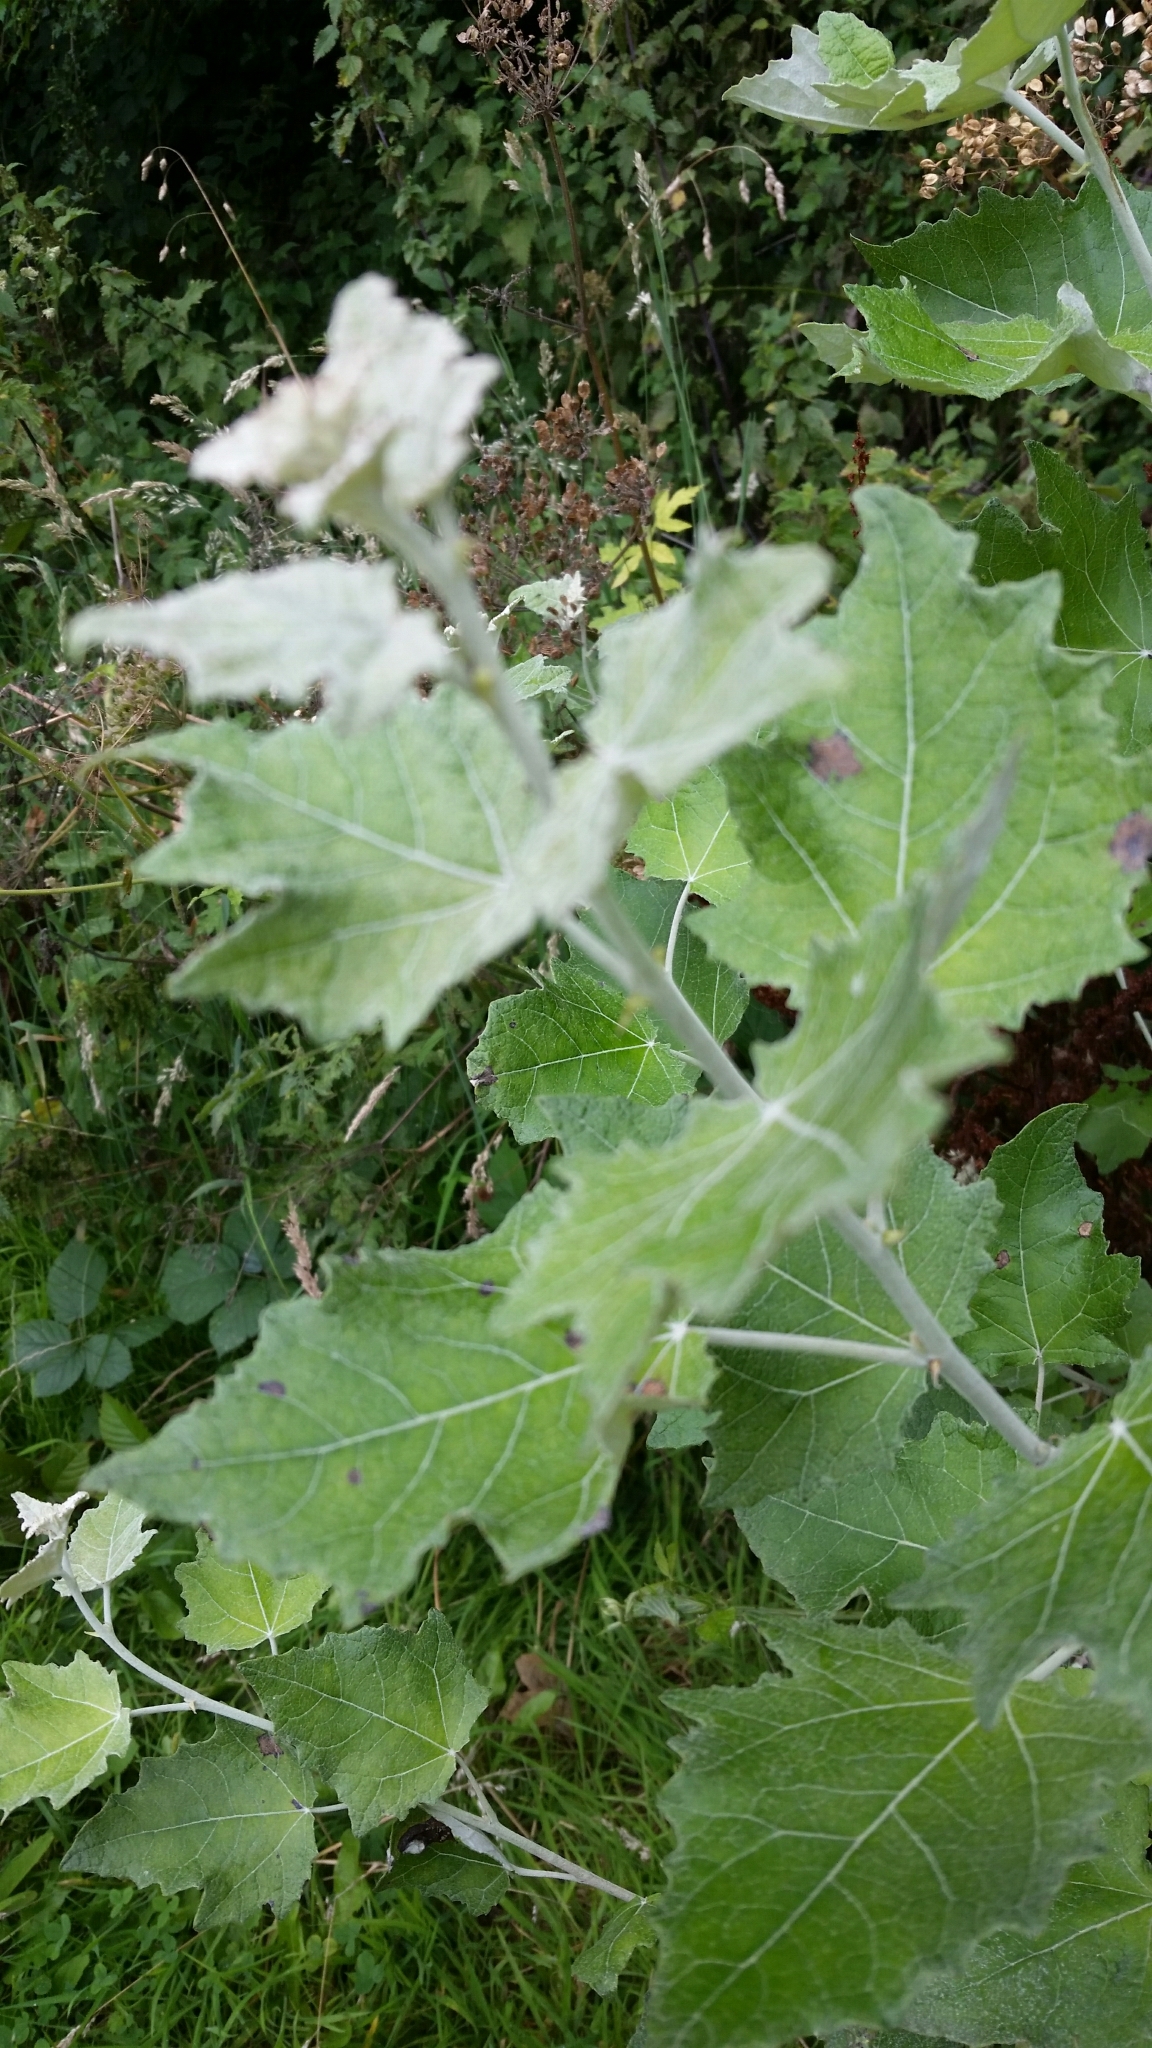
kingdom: Plantae
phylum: Tracheophyta
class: Magnoliopsida
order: Malpighiales
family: Salicaceae
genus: Populus
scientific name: Populus alba
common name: White poplar
